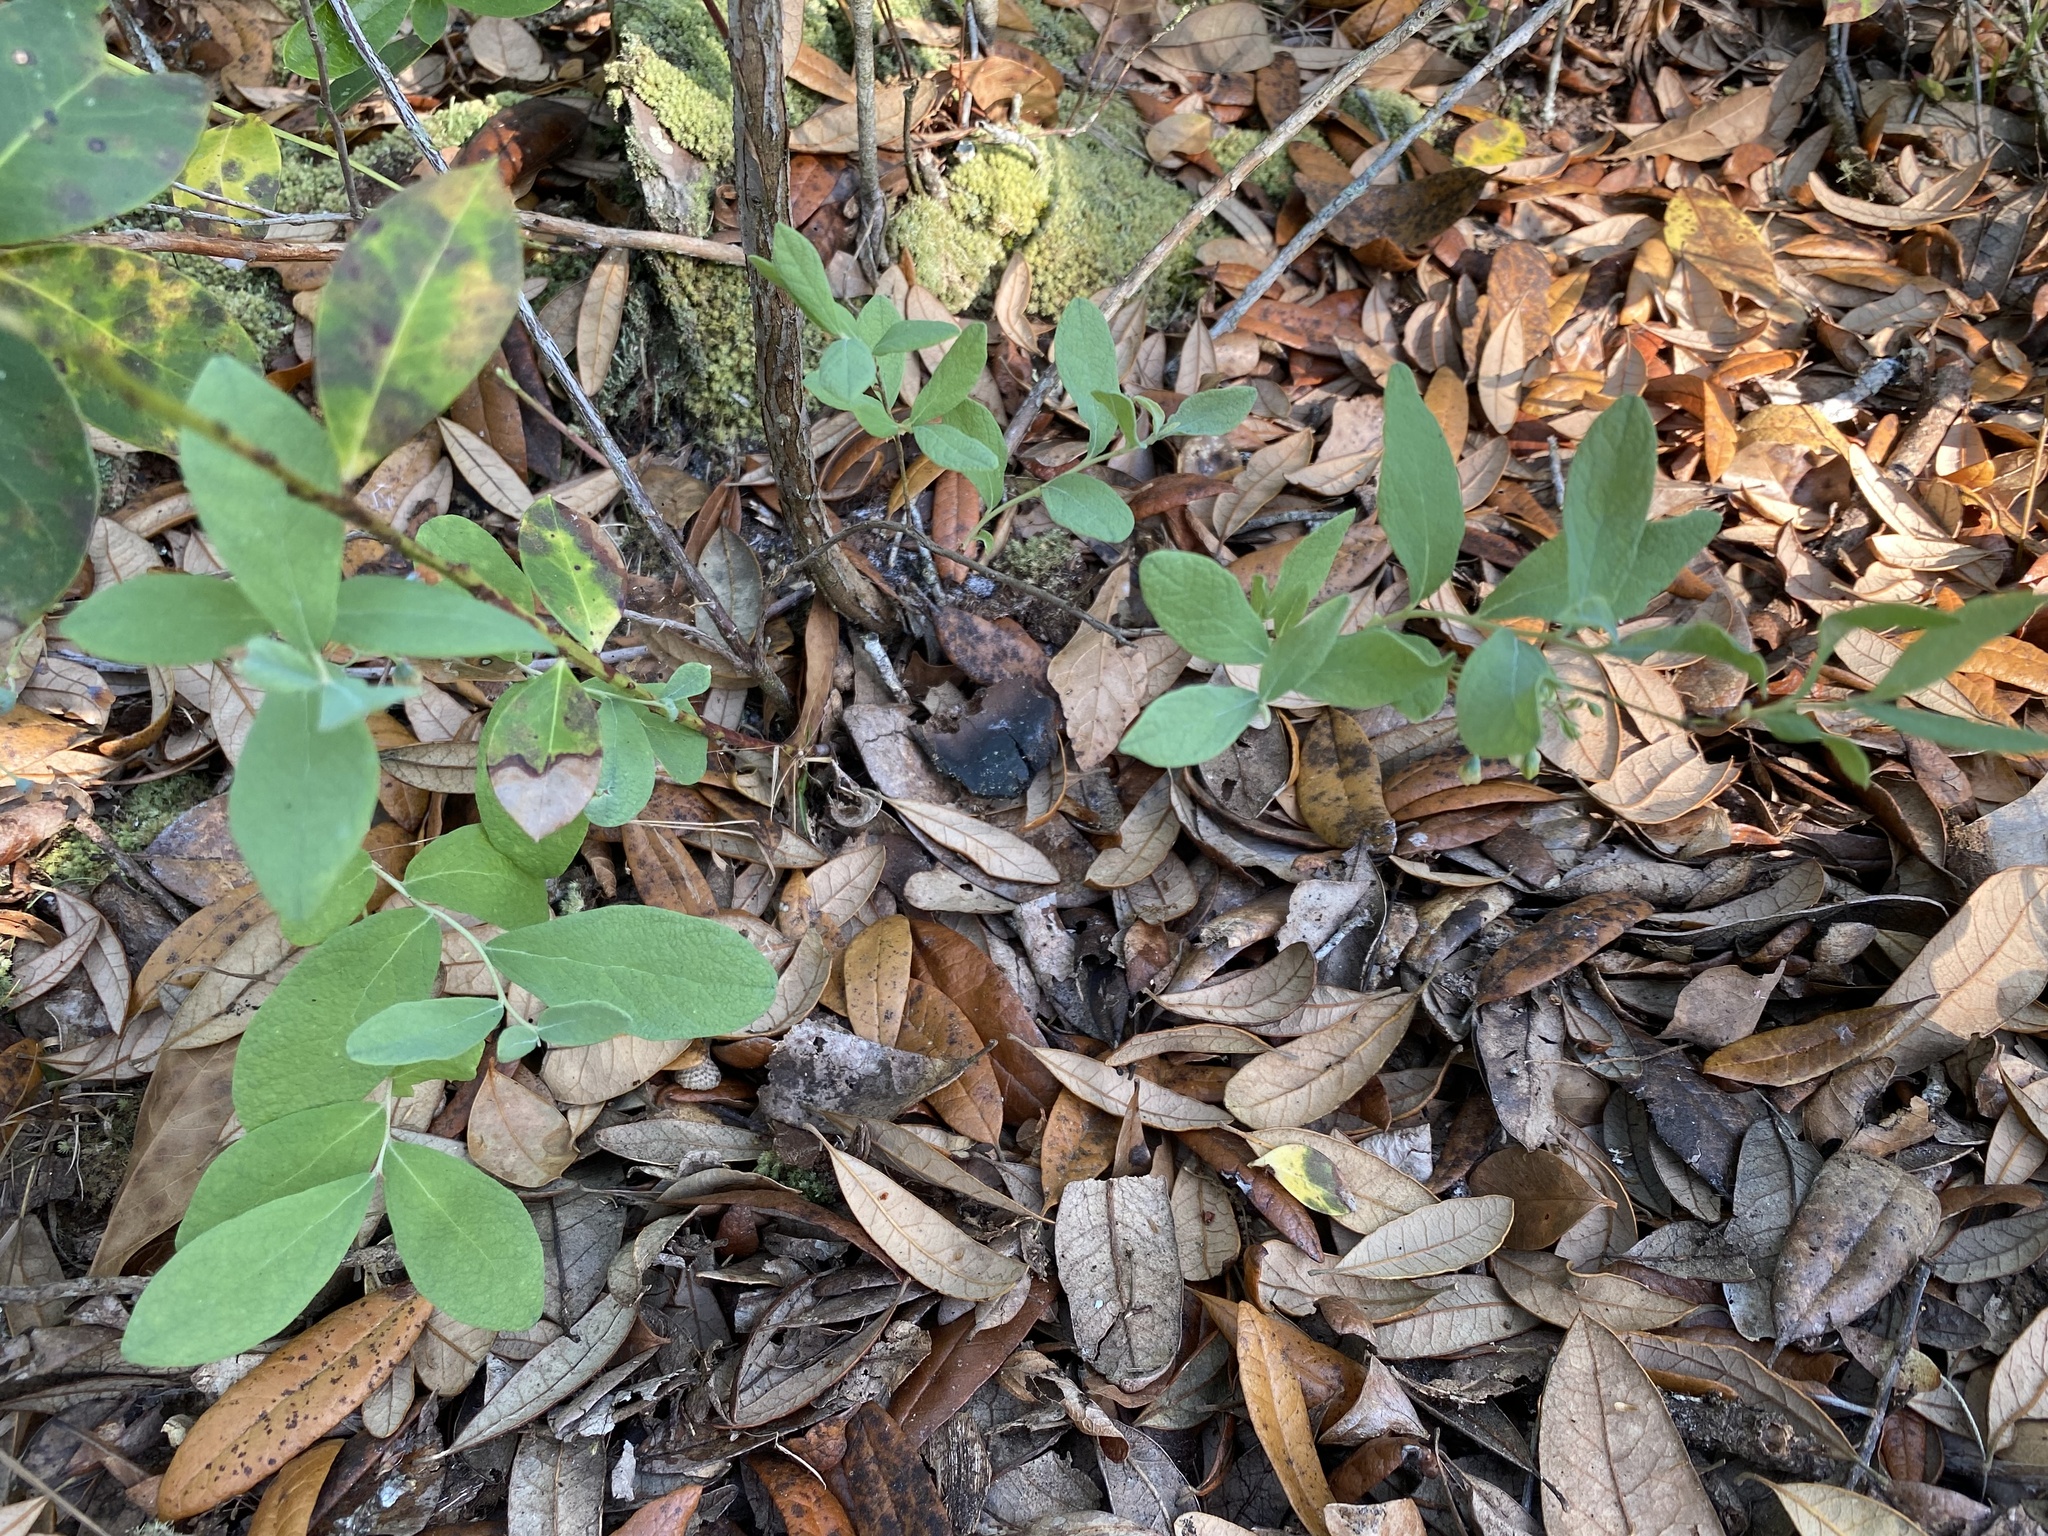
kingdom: Plantae
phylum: Tracheophyta
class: Magnoliopsida
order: Ericales
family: Ericaceae
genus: Gaylussacia
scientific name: Gaylussacia tomentosa
